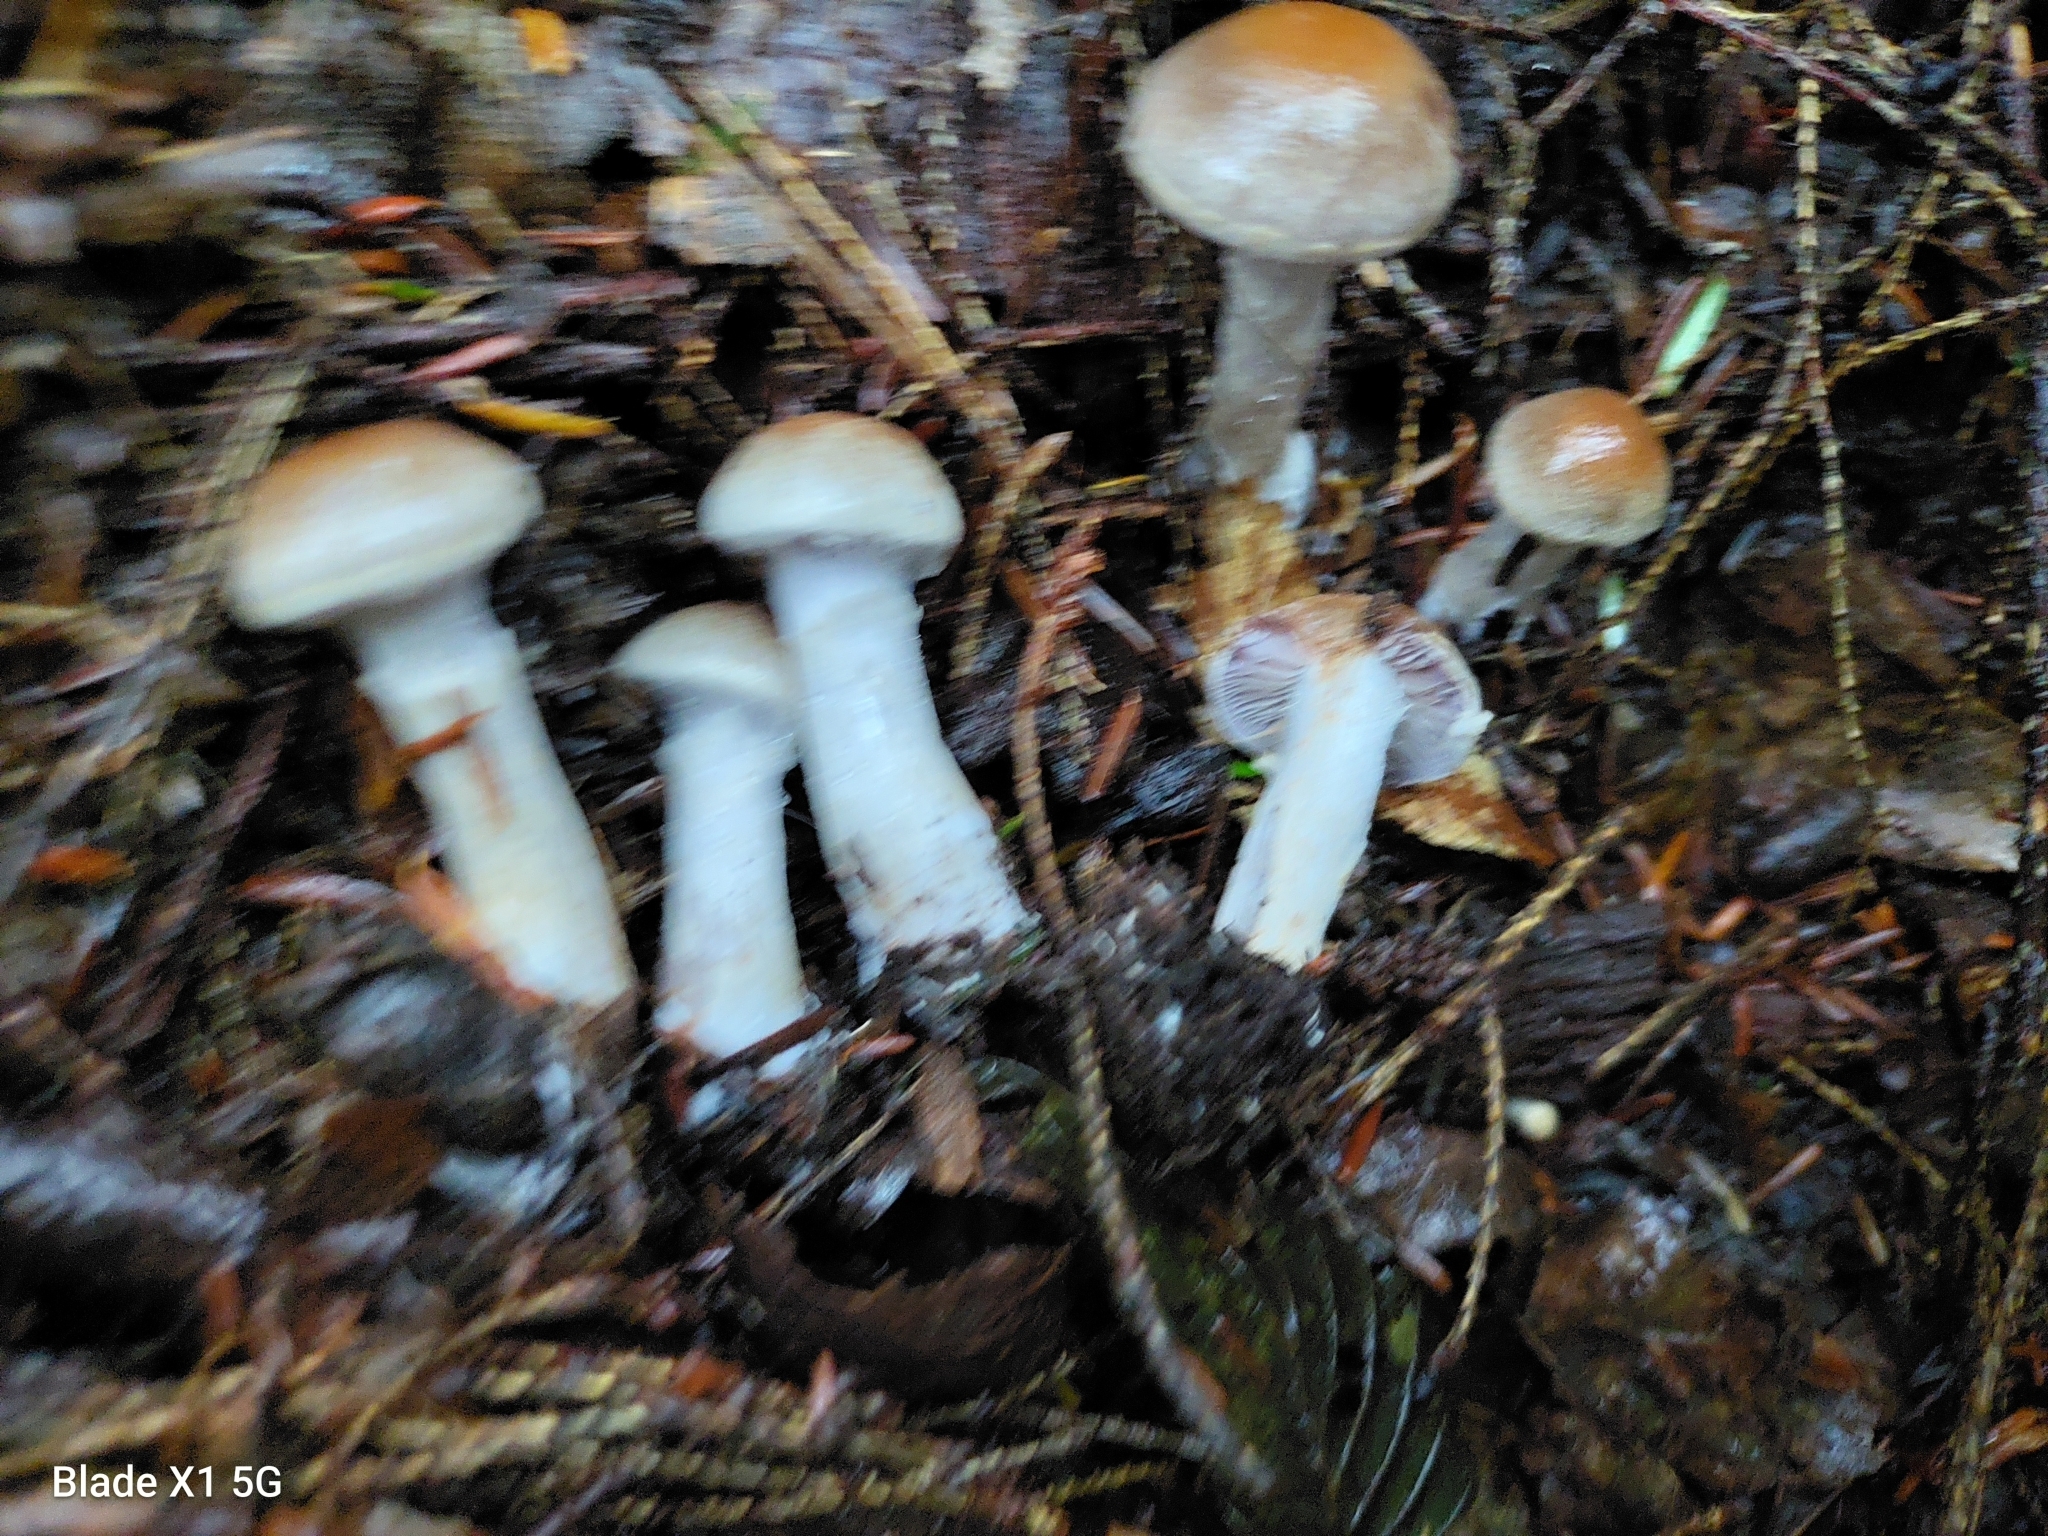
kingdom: Fungi
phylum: Basidiomycota
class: Agaricomycetes
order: Agaricales
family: Cortinariaceae
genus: Cortinarius
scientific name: Cortinarius anomalus
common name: Variable webcap
